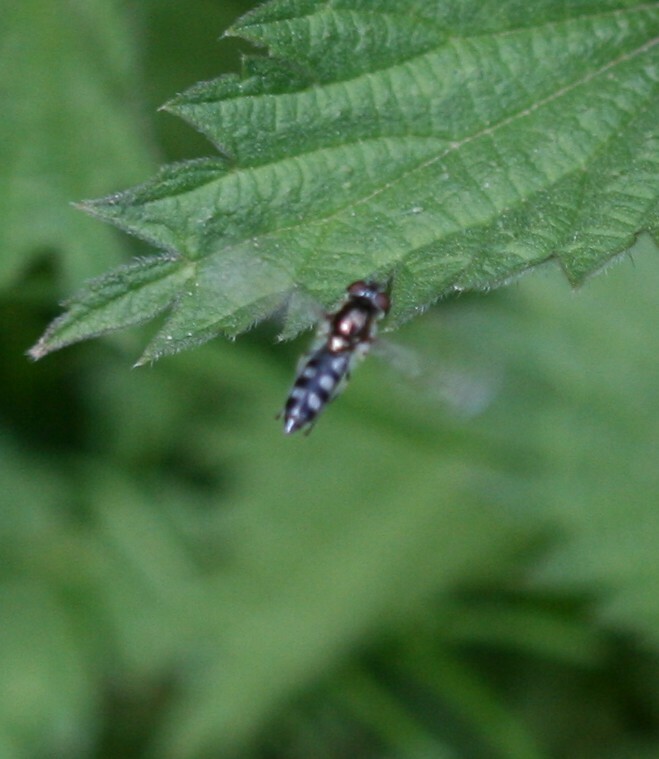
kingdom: Animalia
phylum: Arthropoda
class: Insecta
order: Diptera
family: Syrphidae
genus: Platycheirus
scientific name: Platycheirus albimanus
